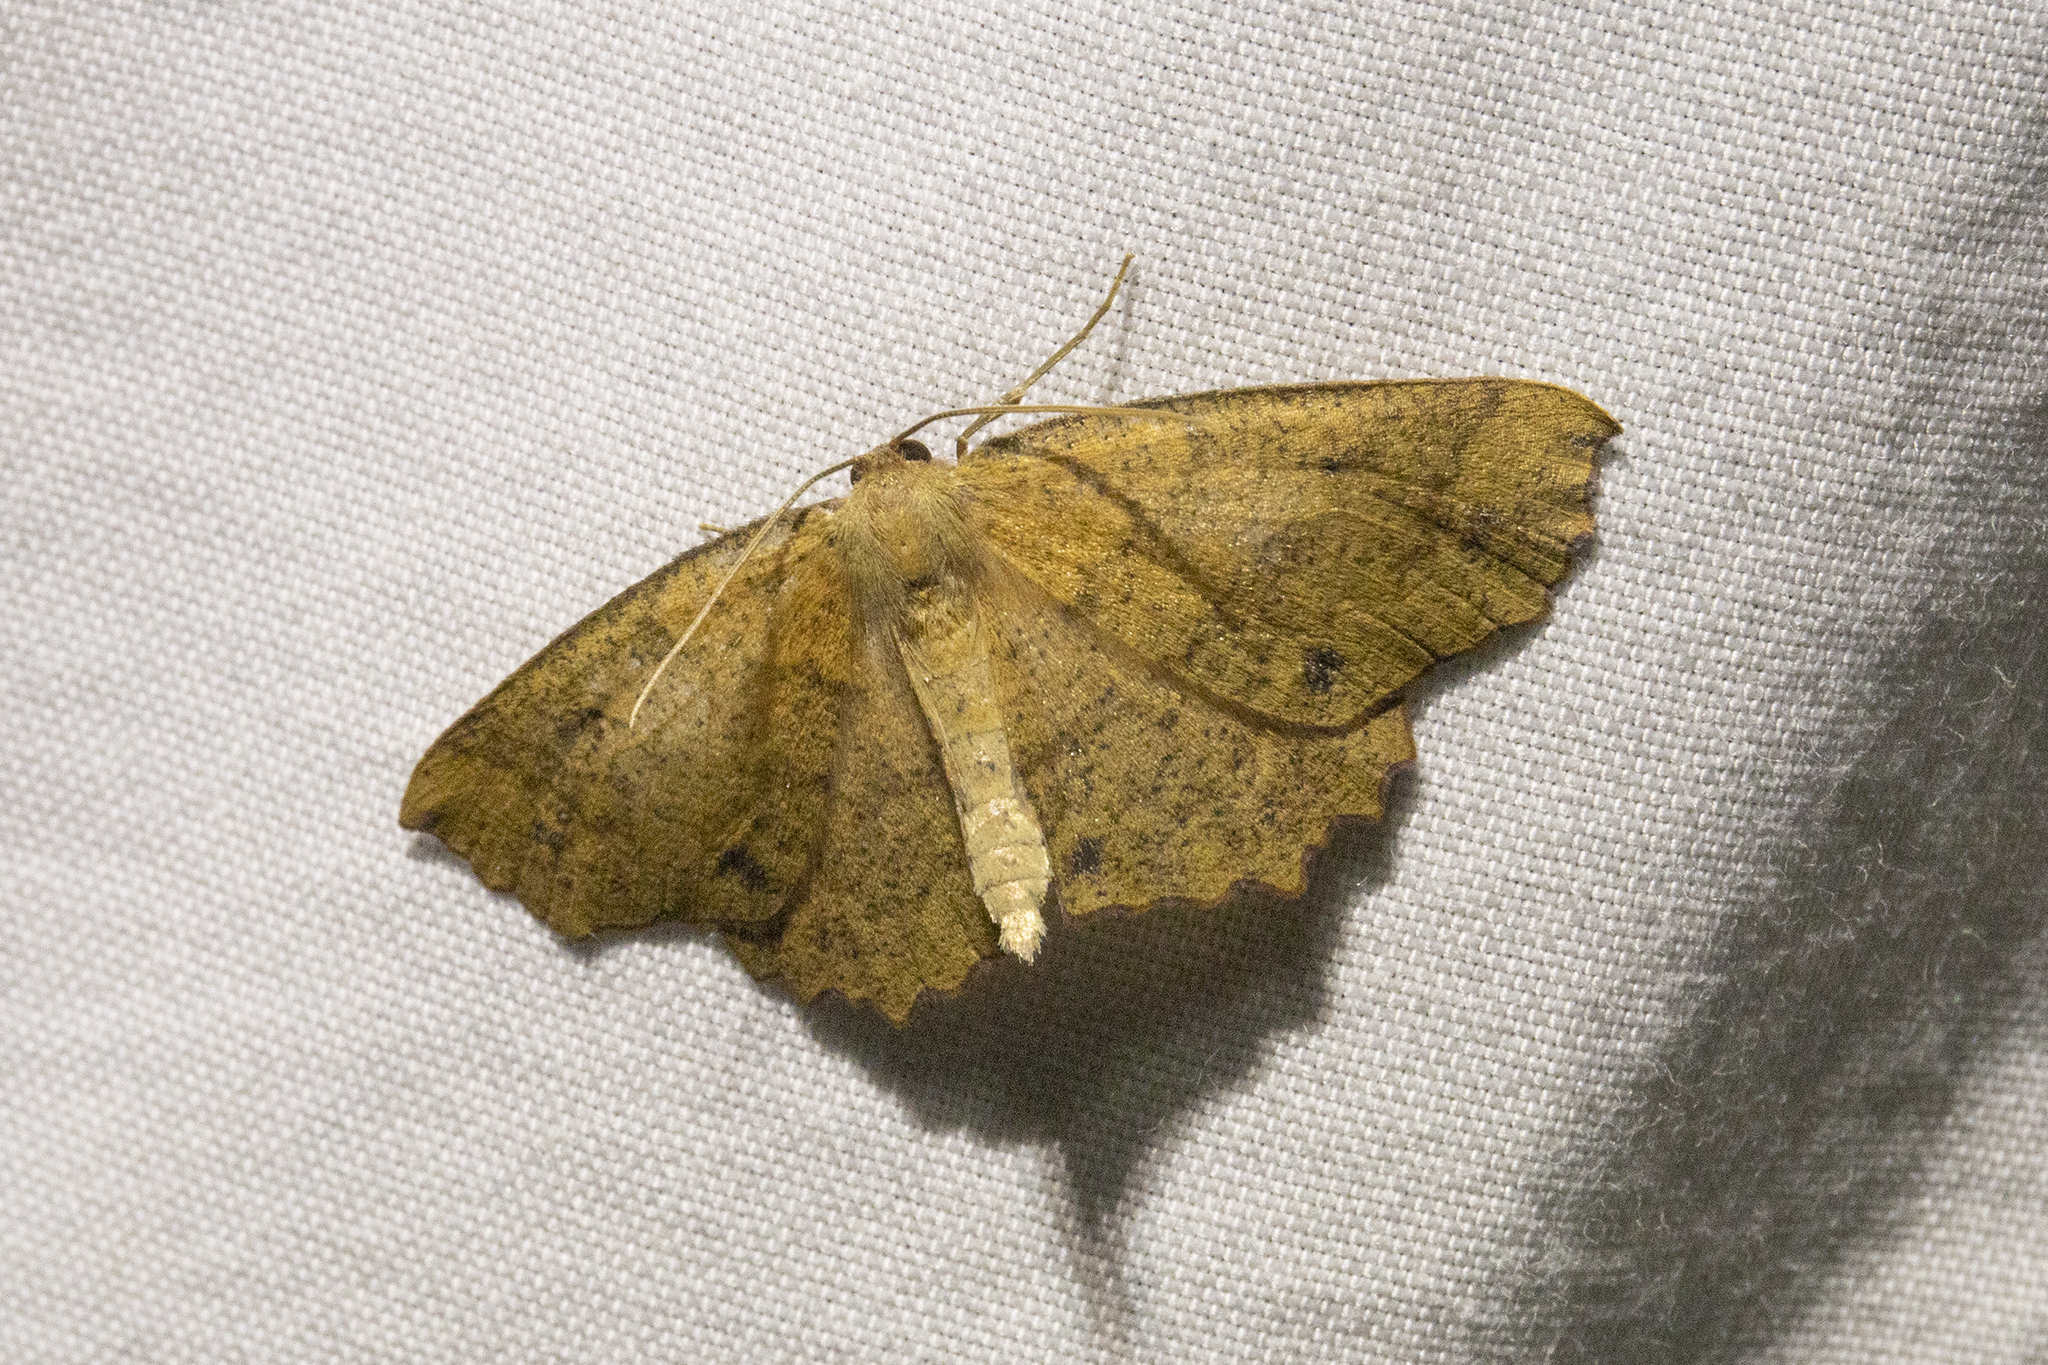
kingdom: Animalia
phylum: Arthropoda
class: Insecta
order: Lepidoptera
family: Geometridae
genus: Xyridacma
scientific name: Xyridacma ustaria
